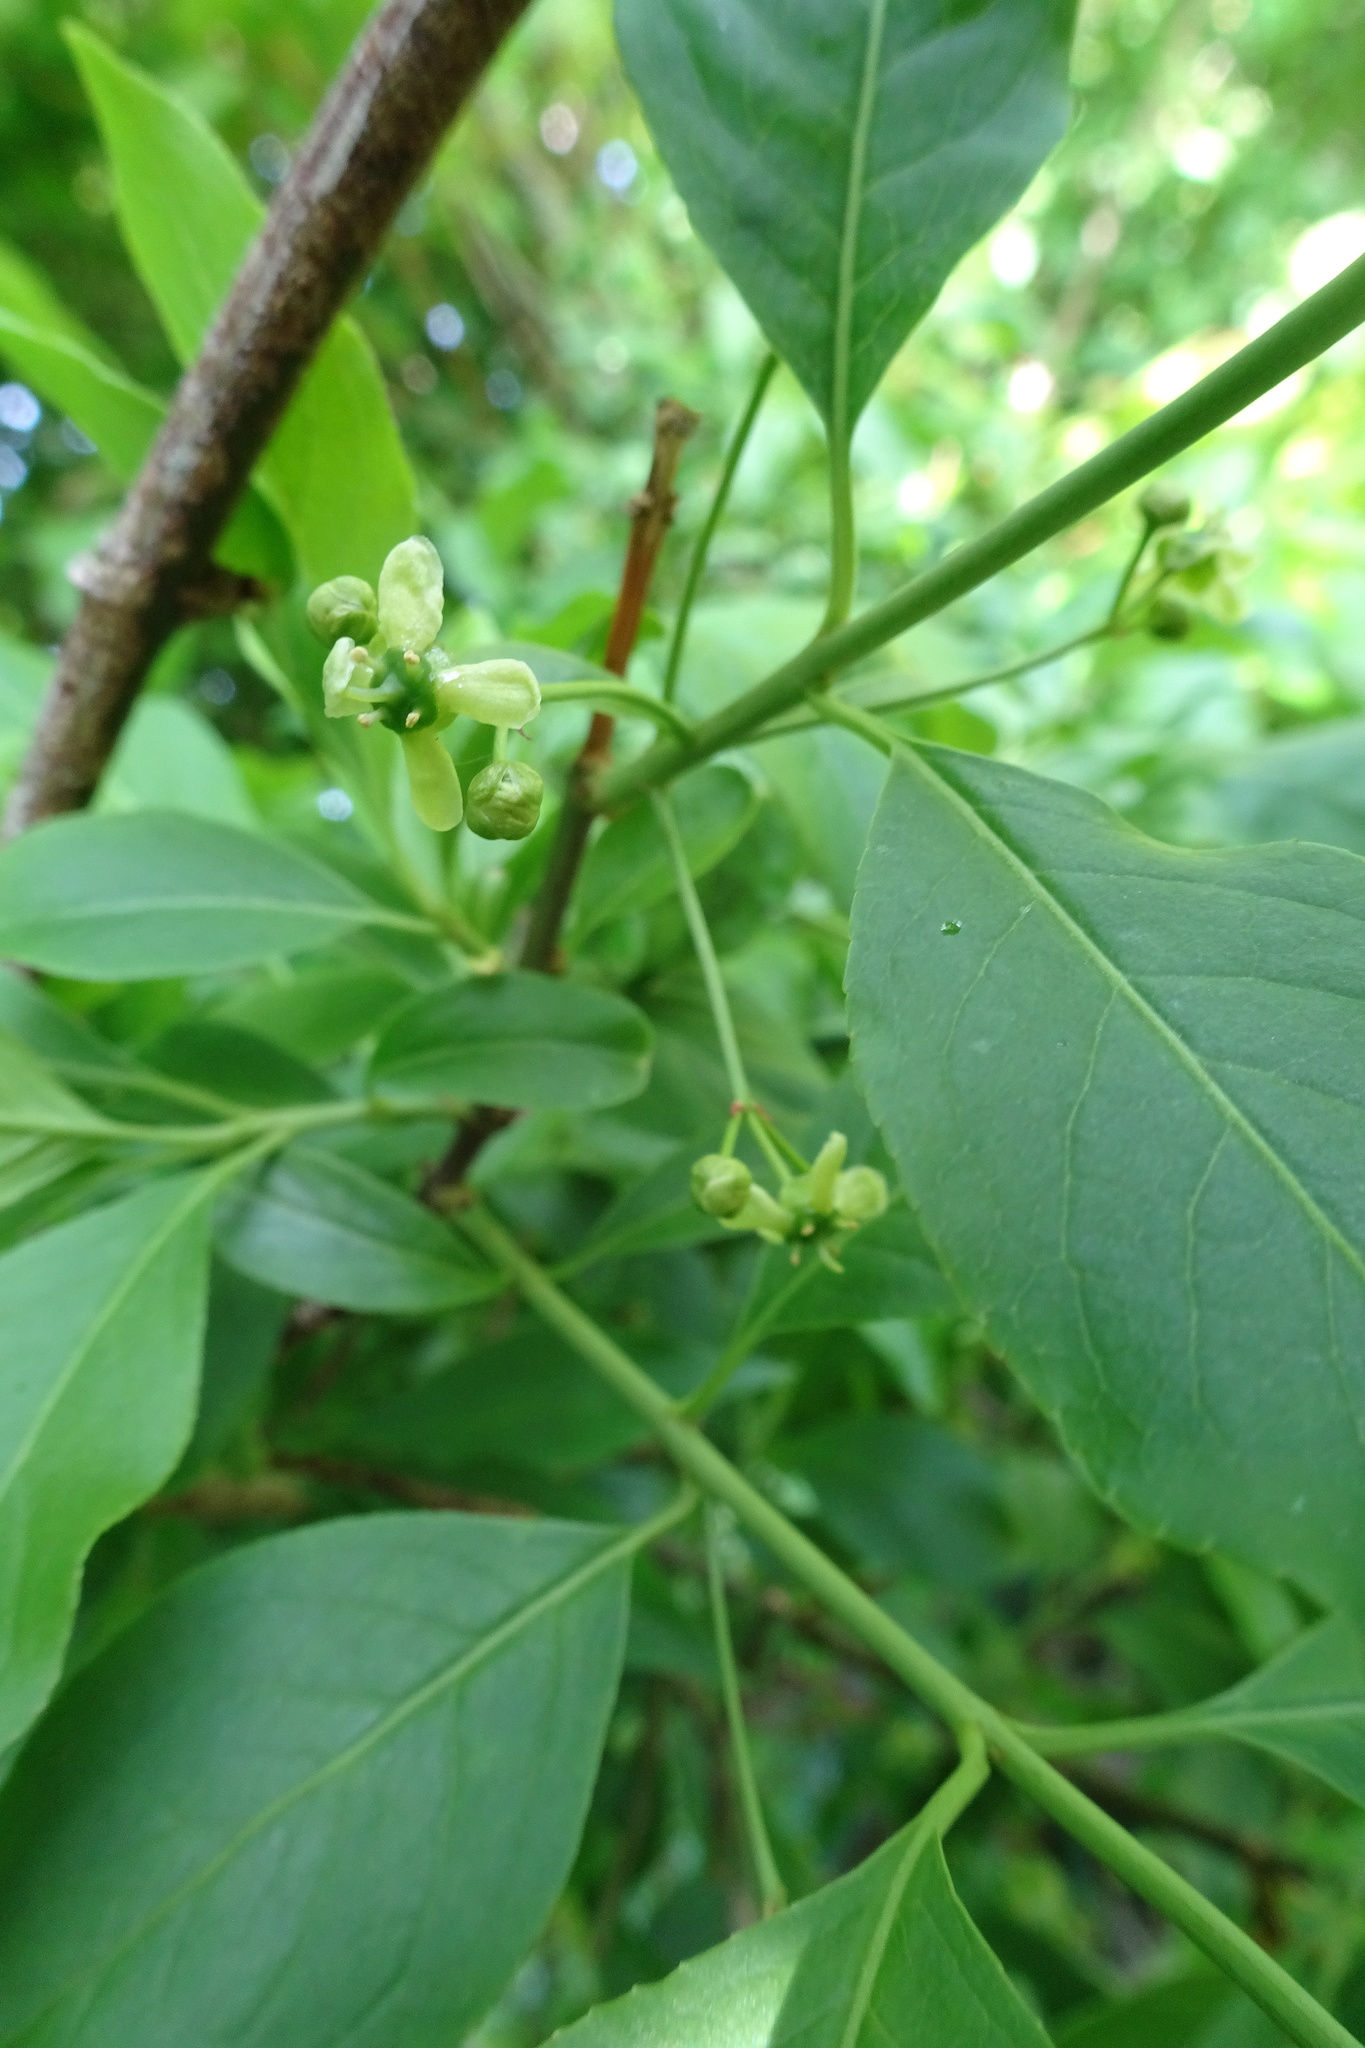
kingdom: Plantae
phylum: Tracheophyta
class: Magnoliopsida
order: Celastrales
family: Celastraceae
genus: Euonymus
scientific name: Euonymus europaeus
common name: Spindle
